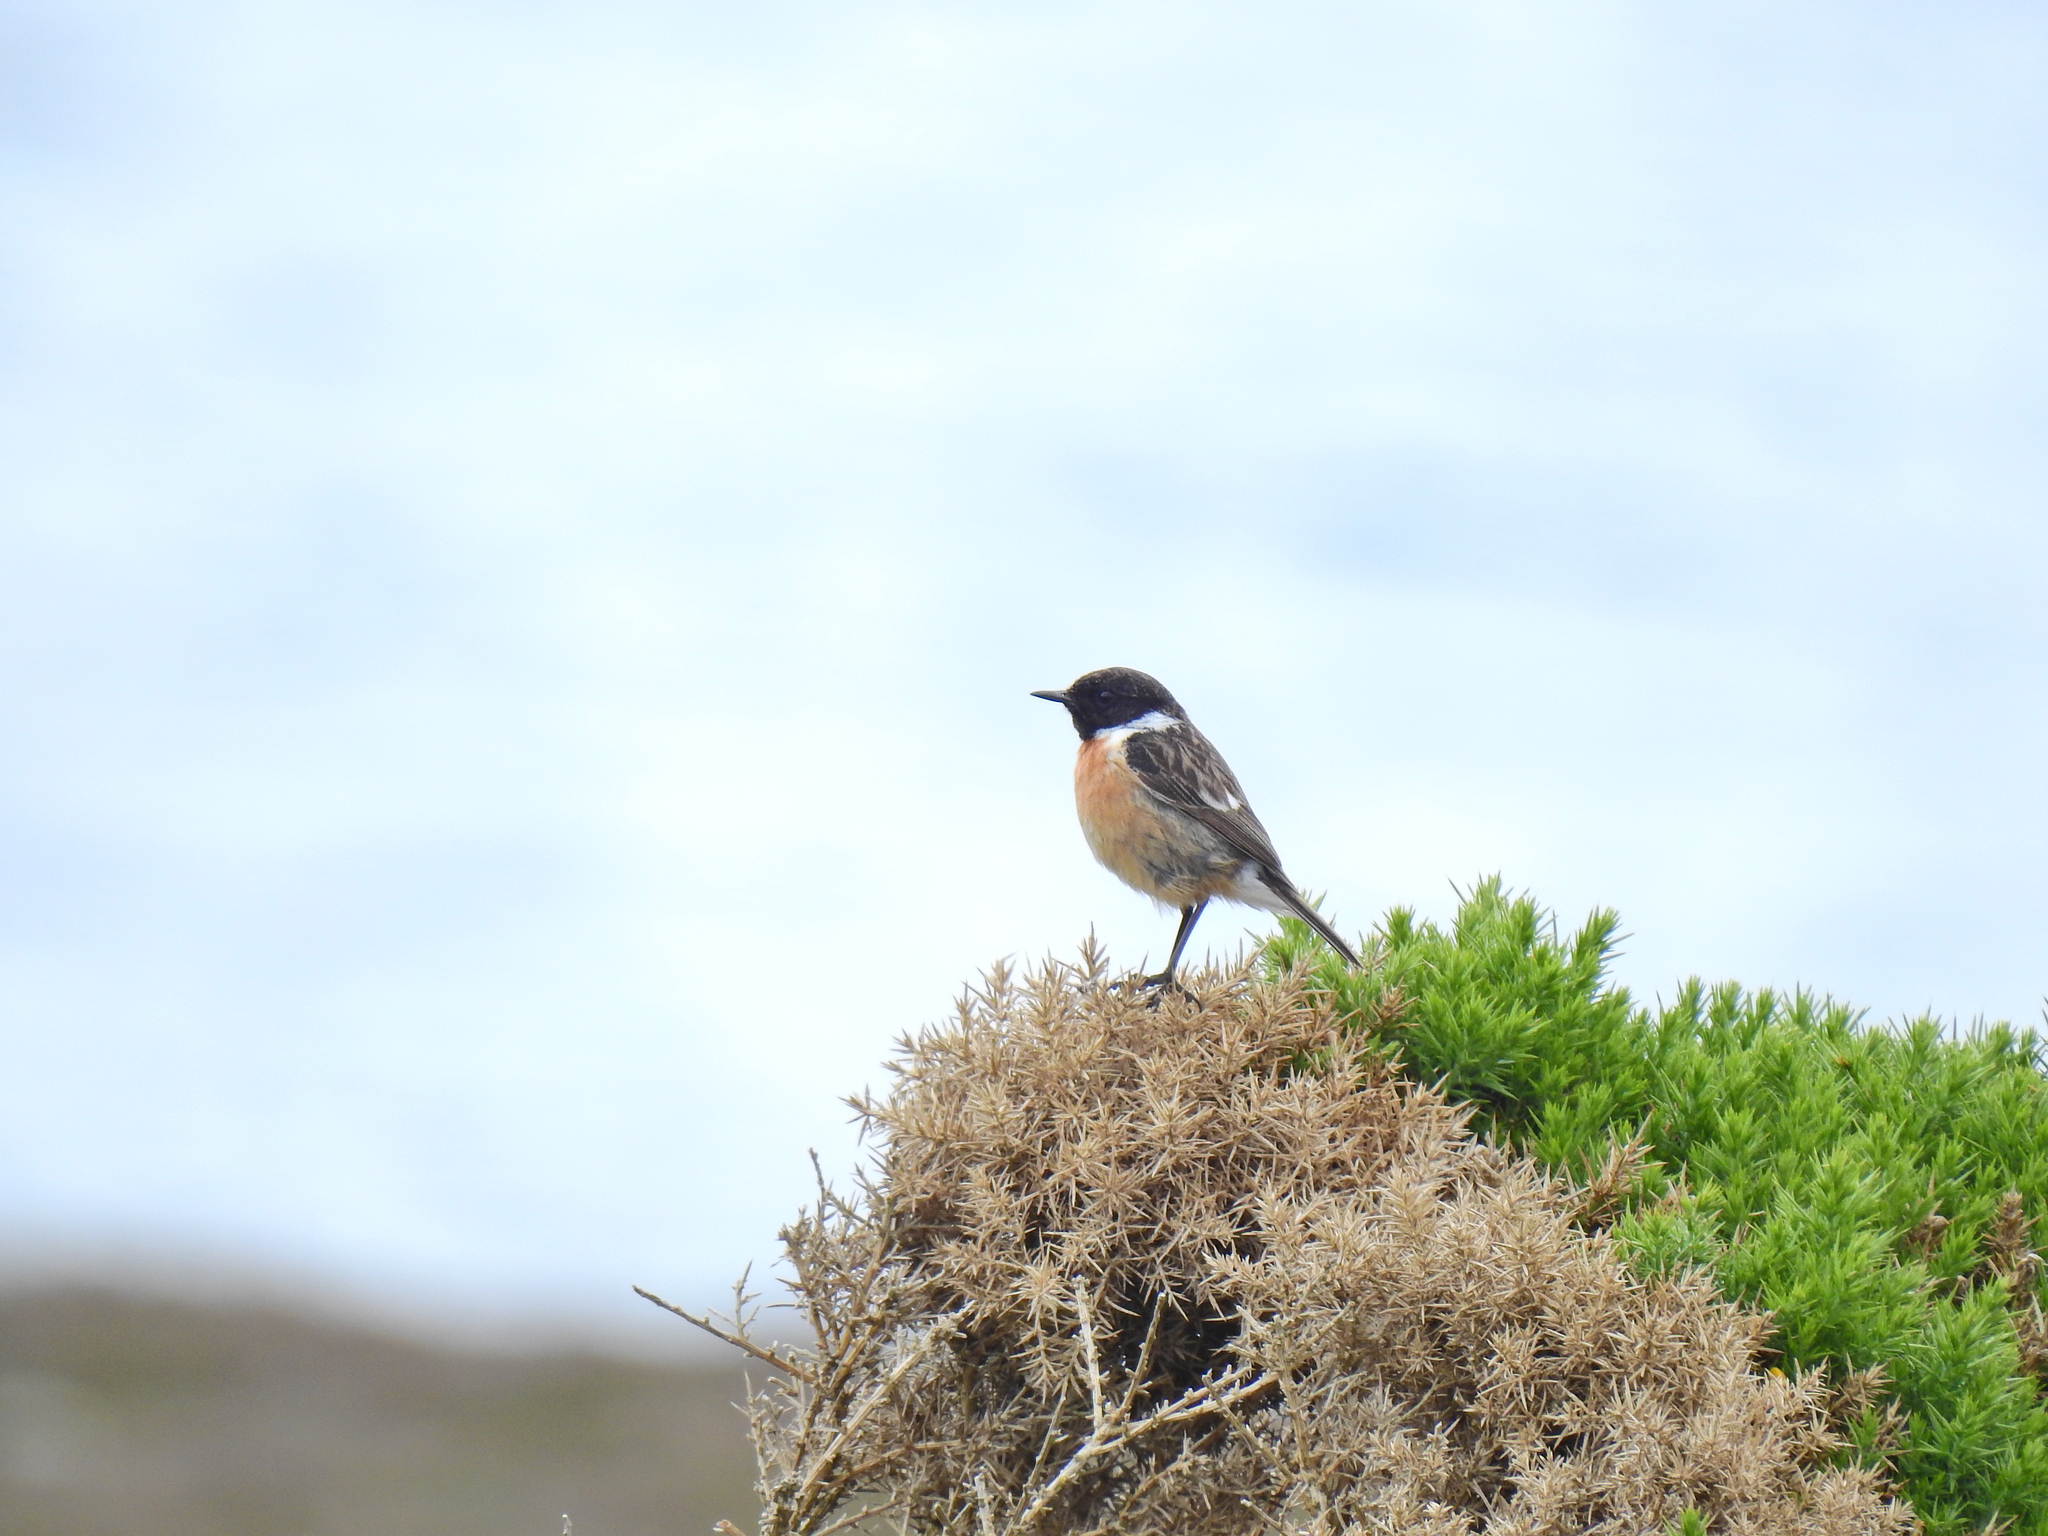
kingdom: Animalia
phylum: Chordata
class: Aves
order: Passeriformes
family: Muscicapidae
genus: Saxicola
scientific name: Saxicola rubicola
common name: European stonechat
